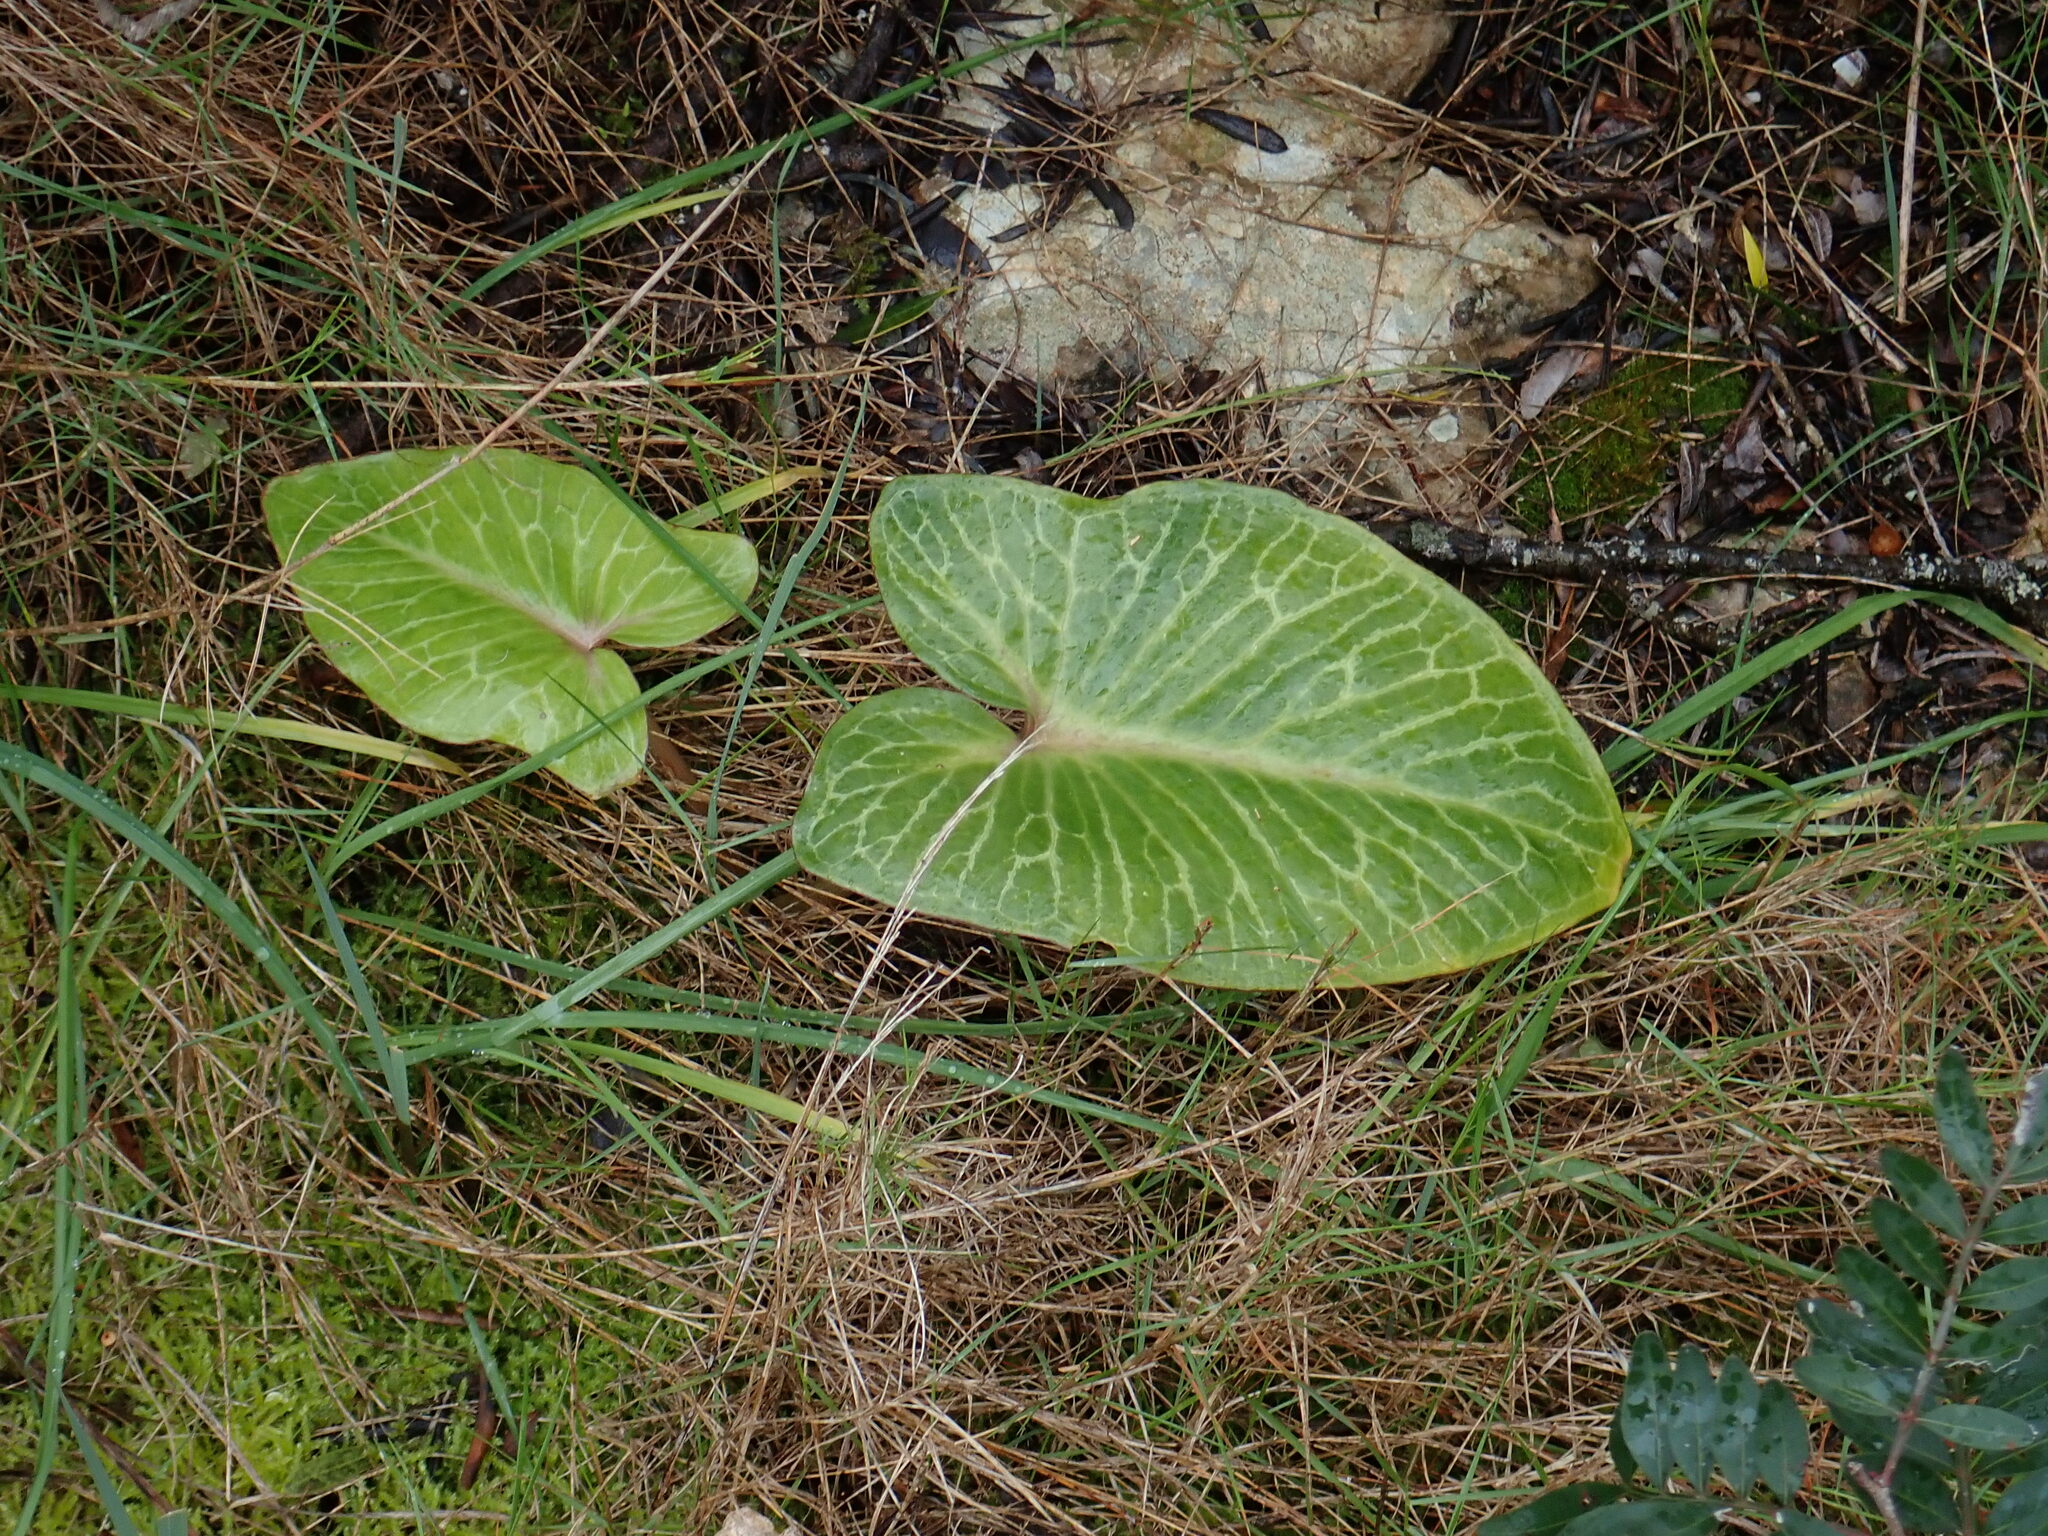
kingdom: Plantae
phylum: Tracheophyta
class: Liliopsida
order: Alismatales
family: Araceae
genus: Arum
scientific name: Arum pictum
